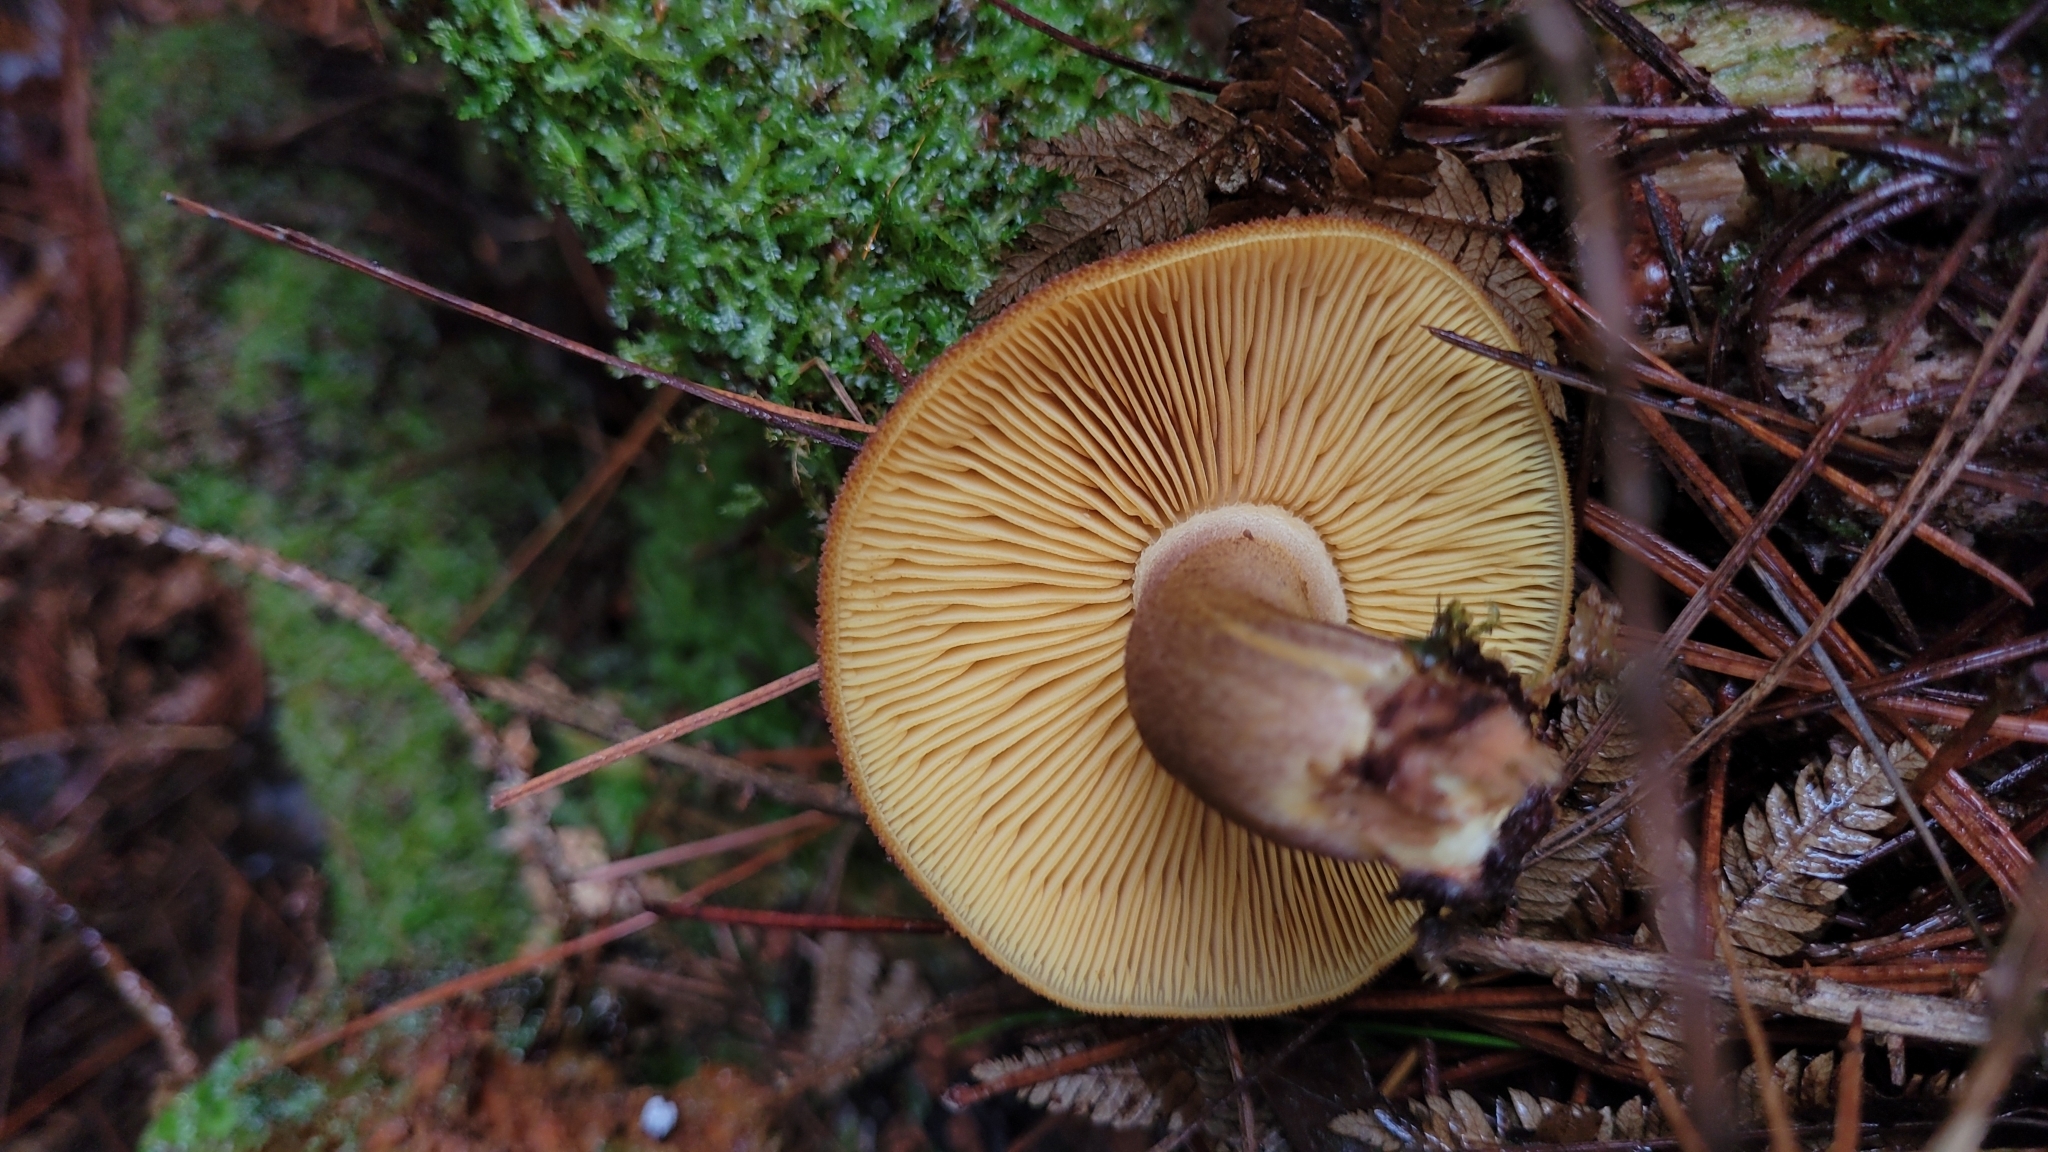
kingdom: Fungi
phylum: Basidiomycota
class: Agaricomycetes
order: Agaricales
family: Tricholomataceae
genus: Tricholomopsis
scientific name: Tricholomopsis ornaticeps
